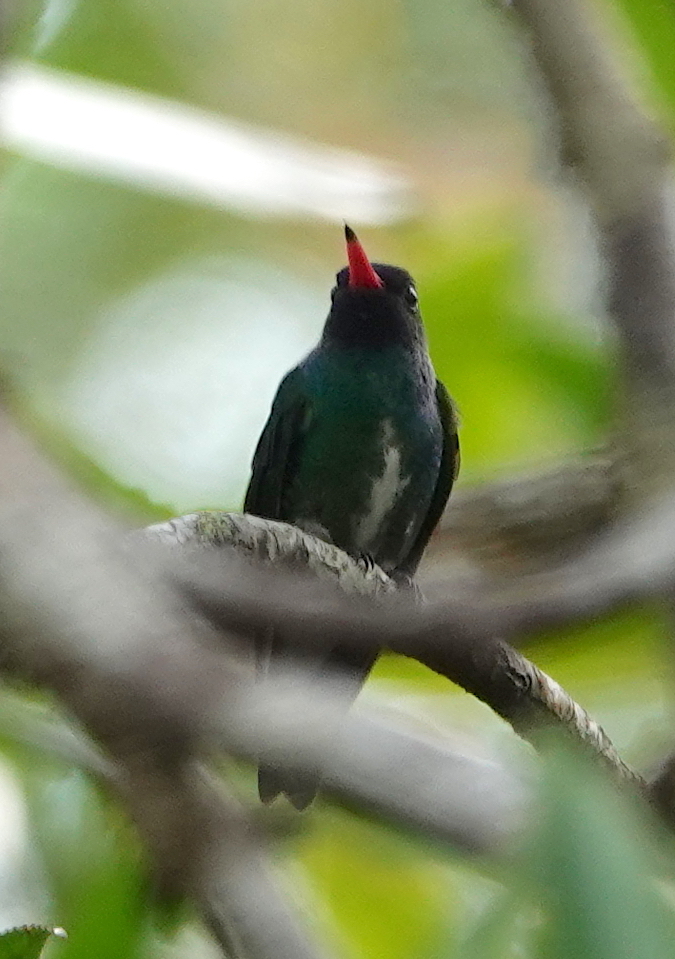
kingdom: Animalia
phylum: Chordata
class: Aves
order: Apodiformes
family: Trochilidae
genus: Chrysuronia
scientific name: Chrysuronia humboldtii
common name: Humboldt's sapphire
